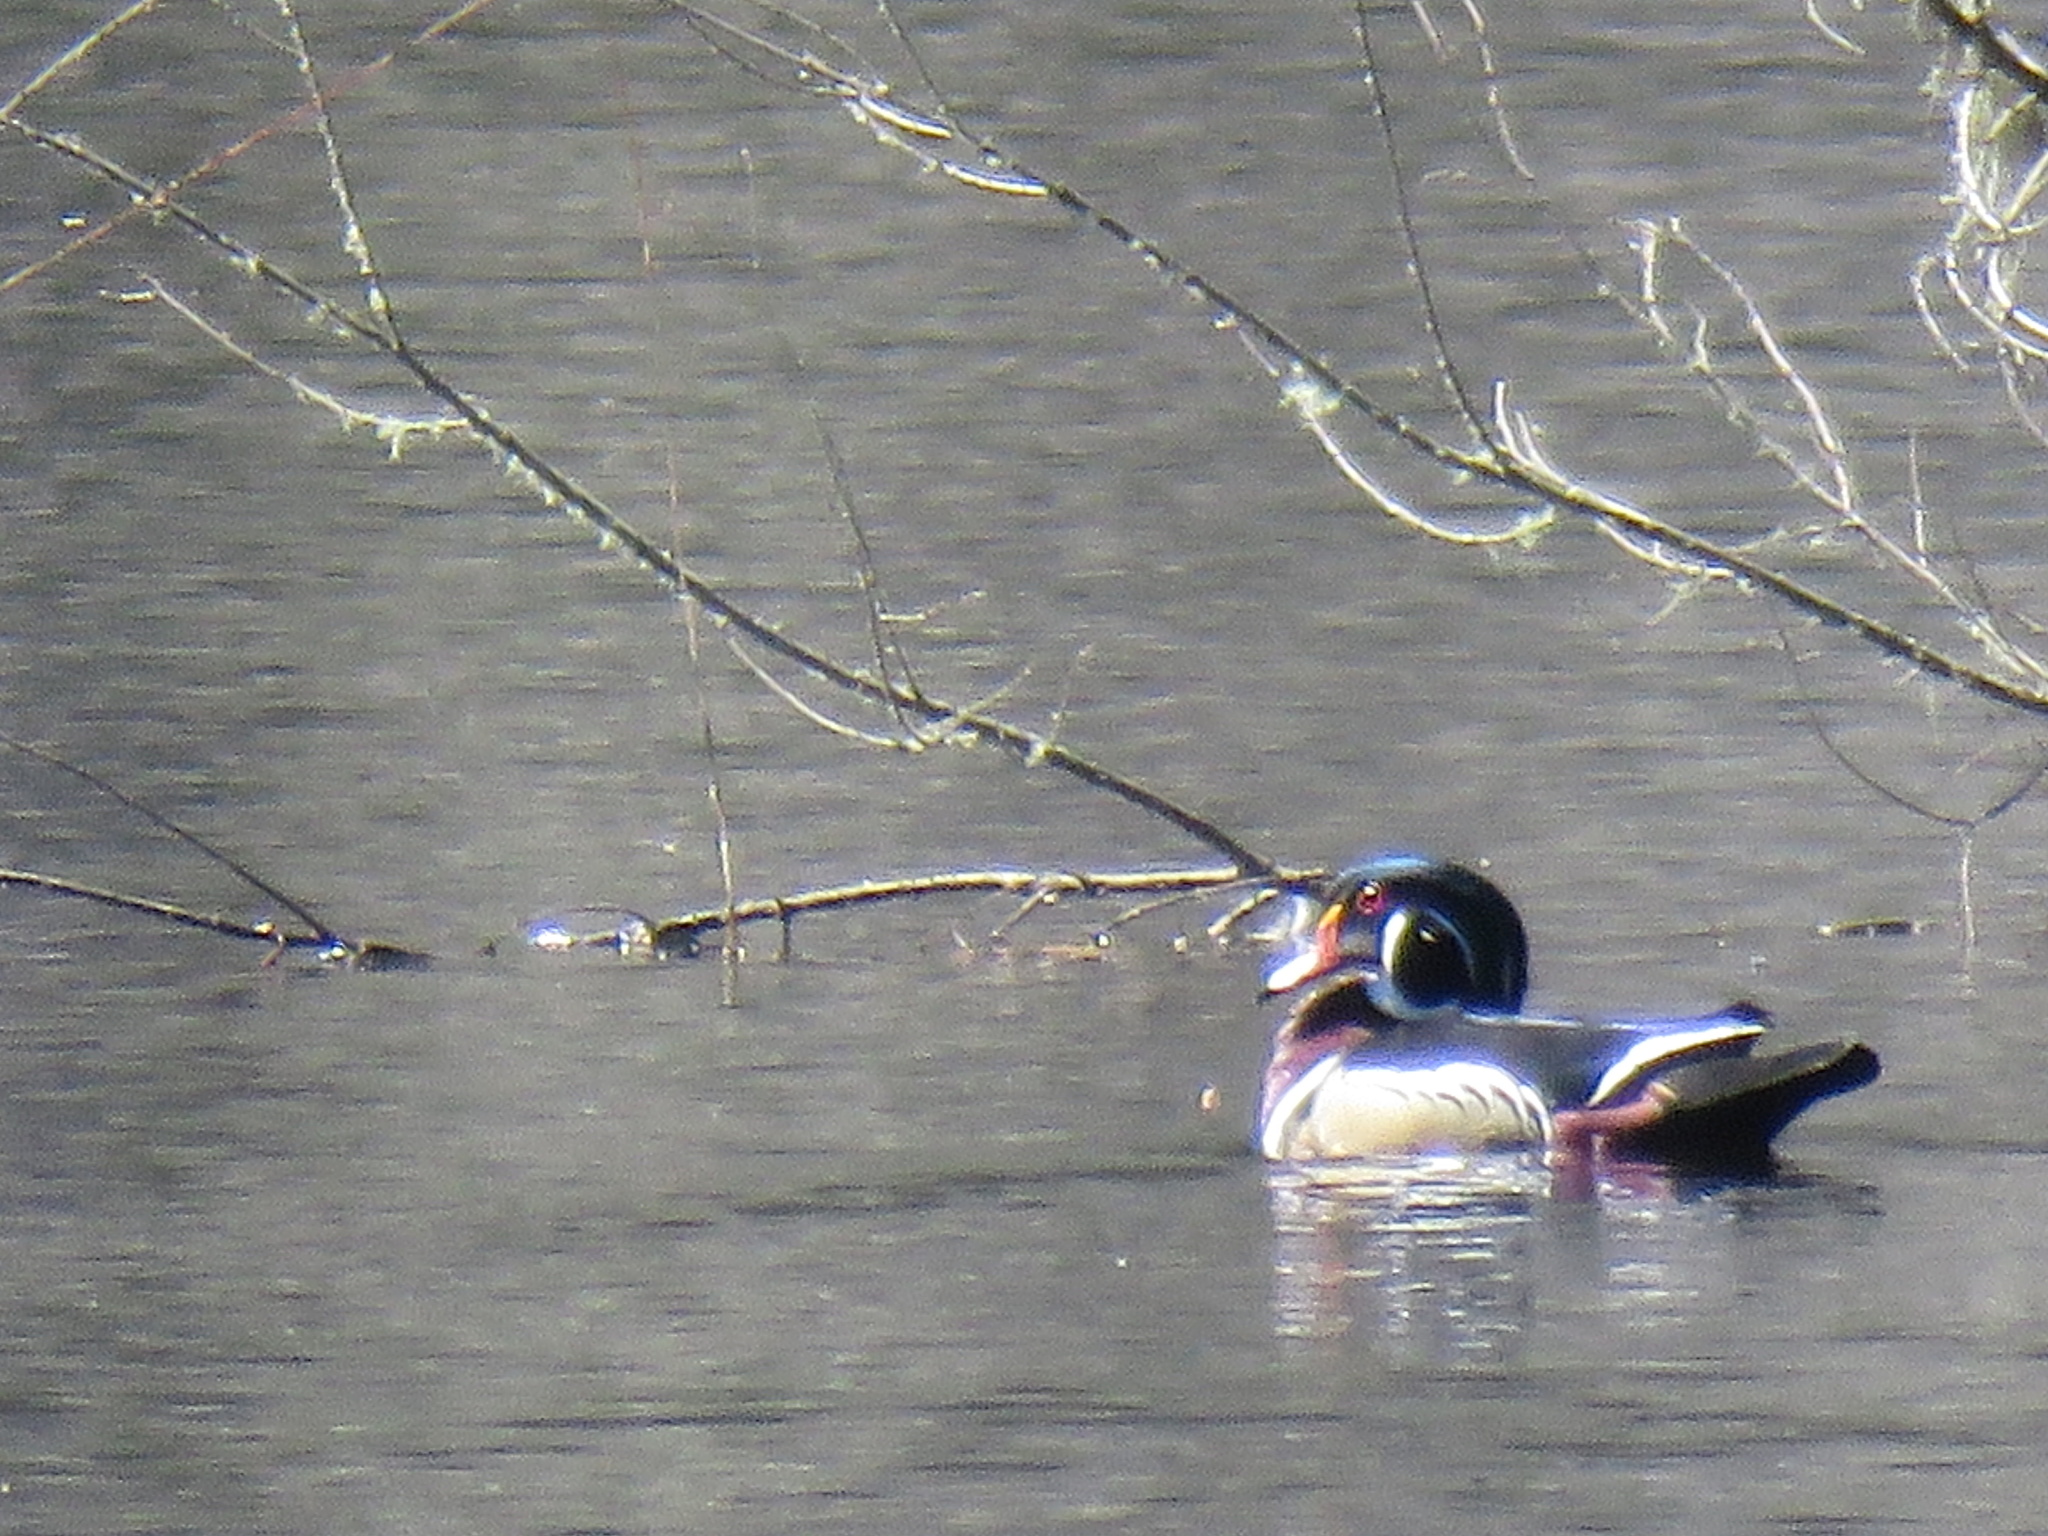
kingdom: Animalia
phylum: Chordata
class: Aves
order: Anseriformes
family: Anatidae
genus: Aix
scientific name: Aix sponsa
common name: Wood duck
